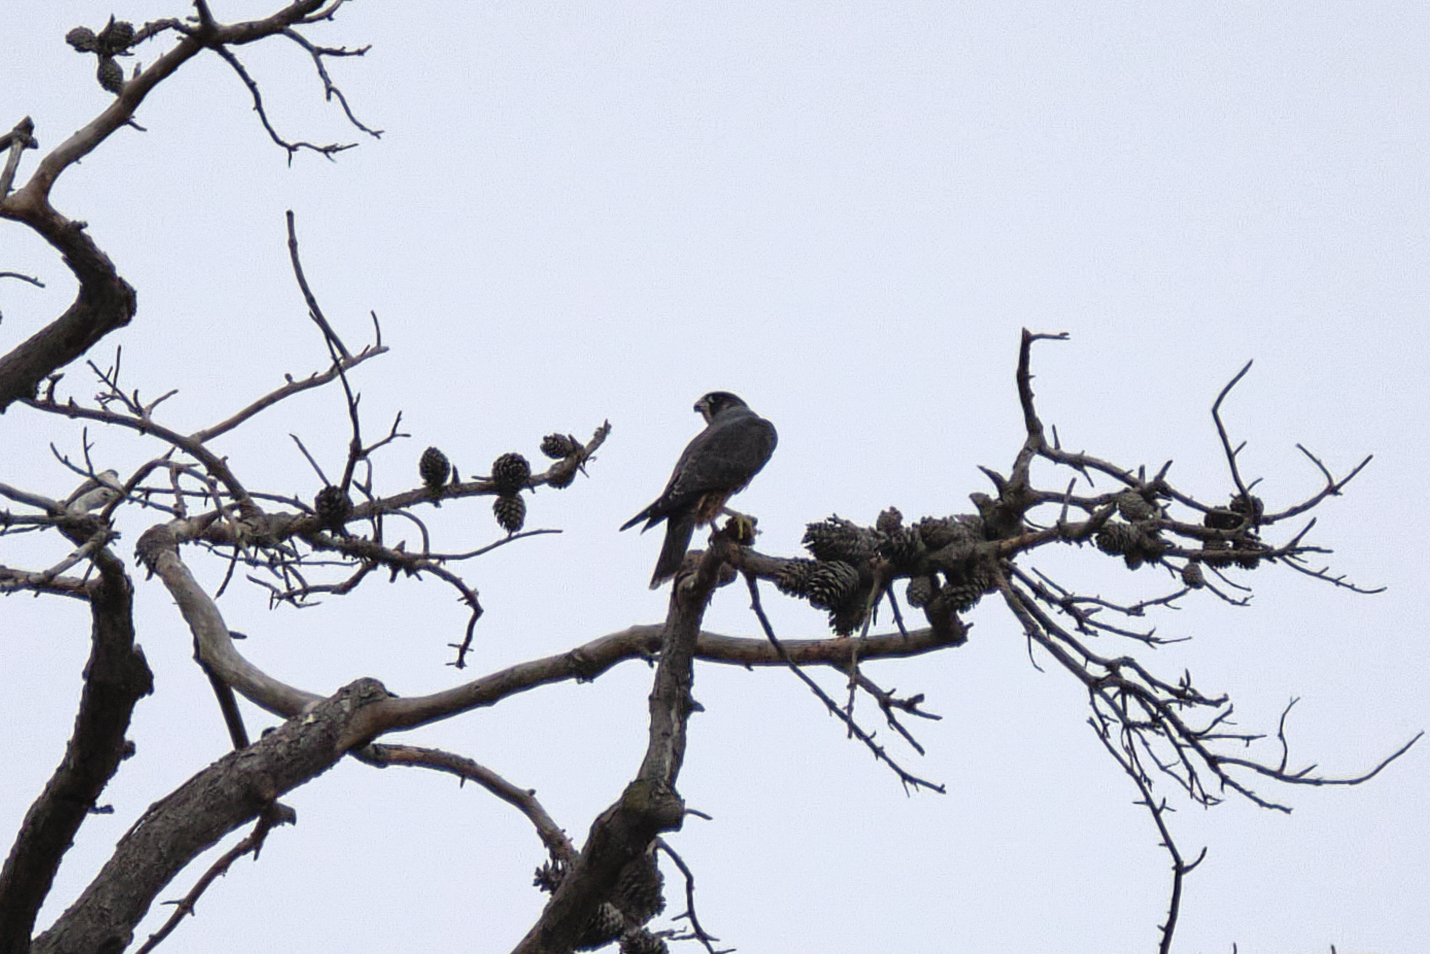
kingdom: Animalia
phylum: Chordata
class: Aves
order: Falconiformes
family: Falconidae
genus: Falco
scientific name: Falco peregrinus
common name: Peregrine falcon
